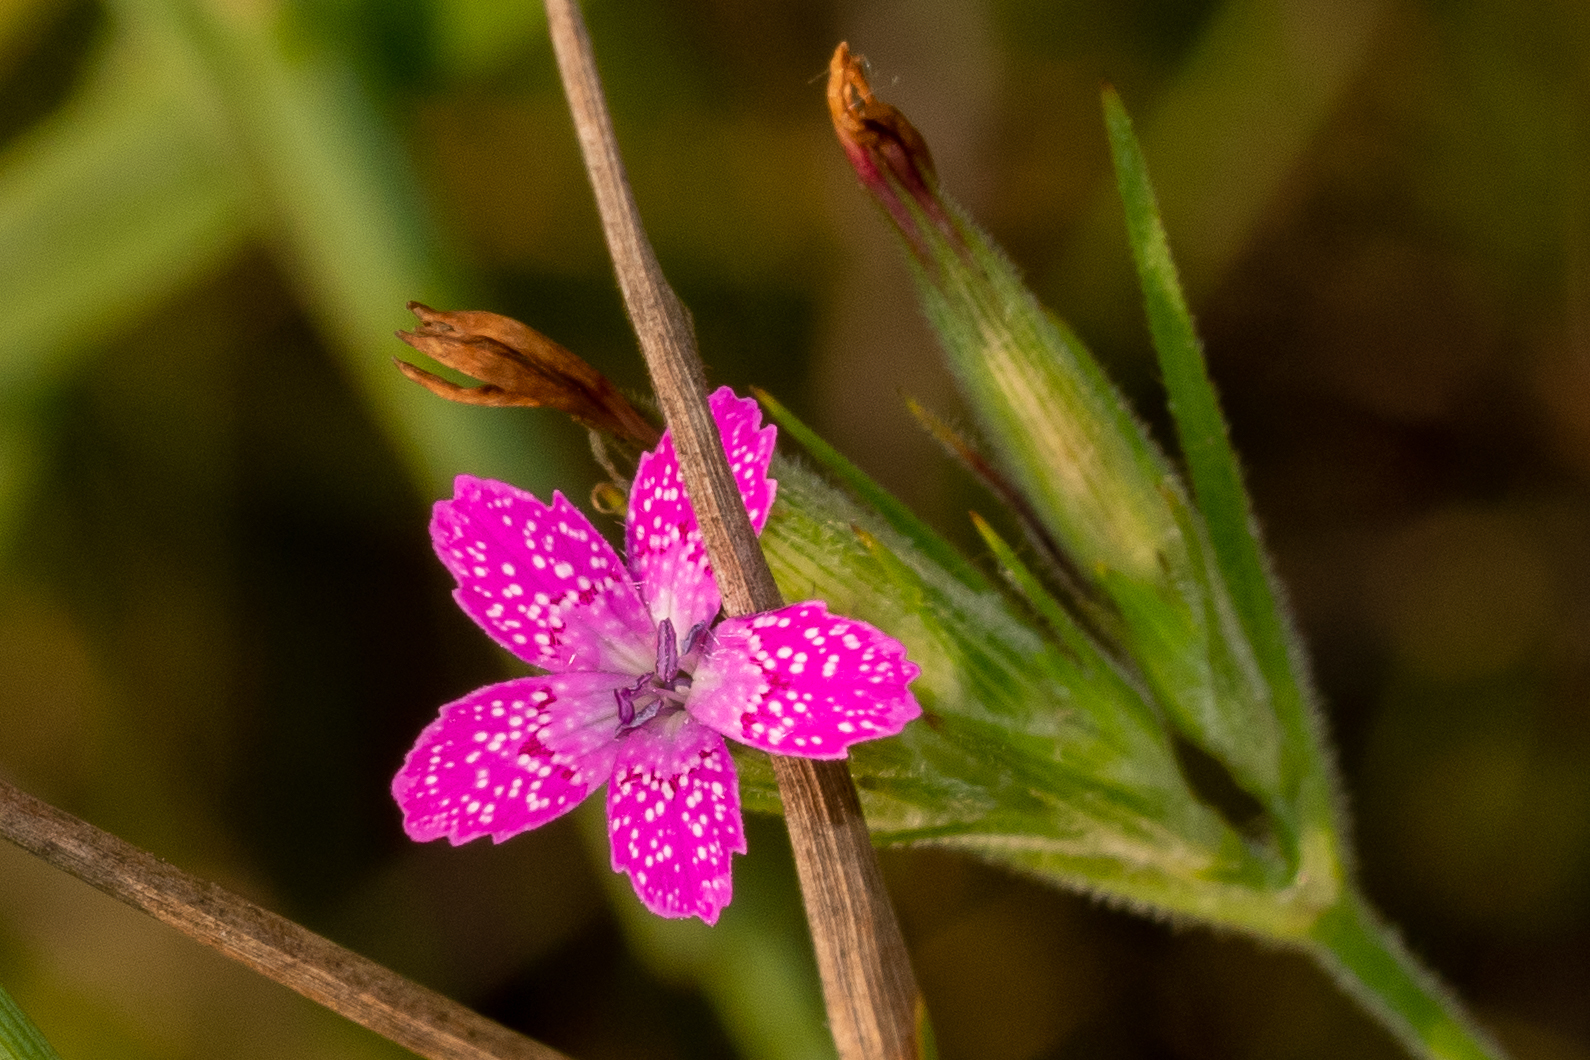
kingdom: Plantae
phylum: Tracheophyta
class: Magnoliopsida
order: Caryophyllales
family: Caryophyllaceae
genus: Dianthus
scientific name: Dianthus armeria
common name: Deptford pink
